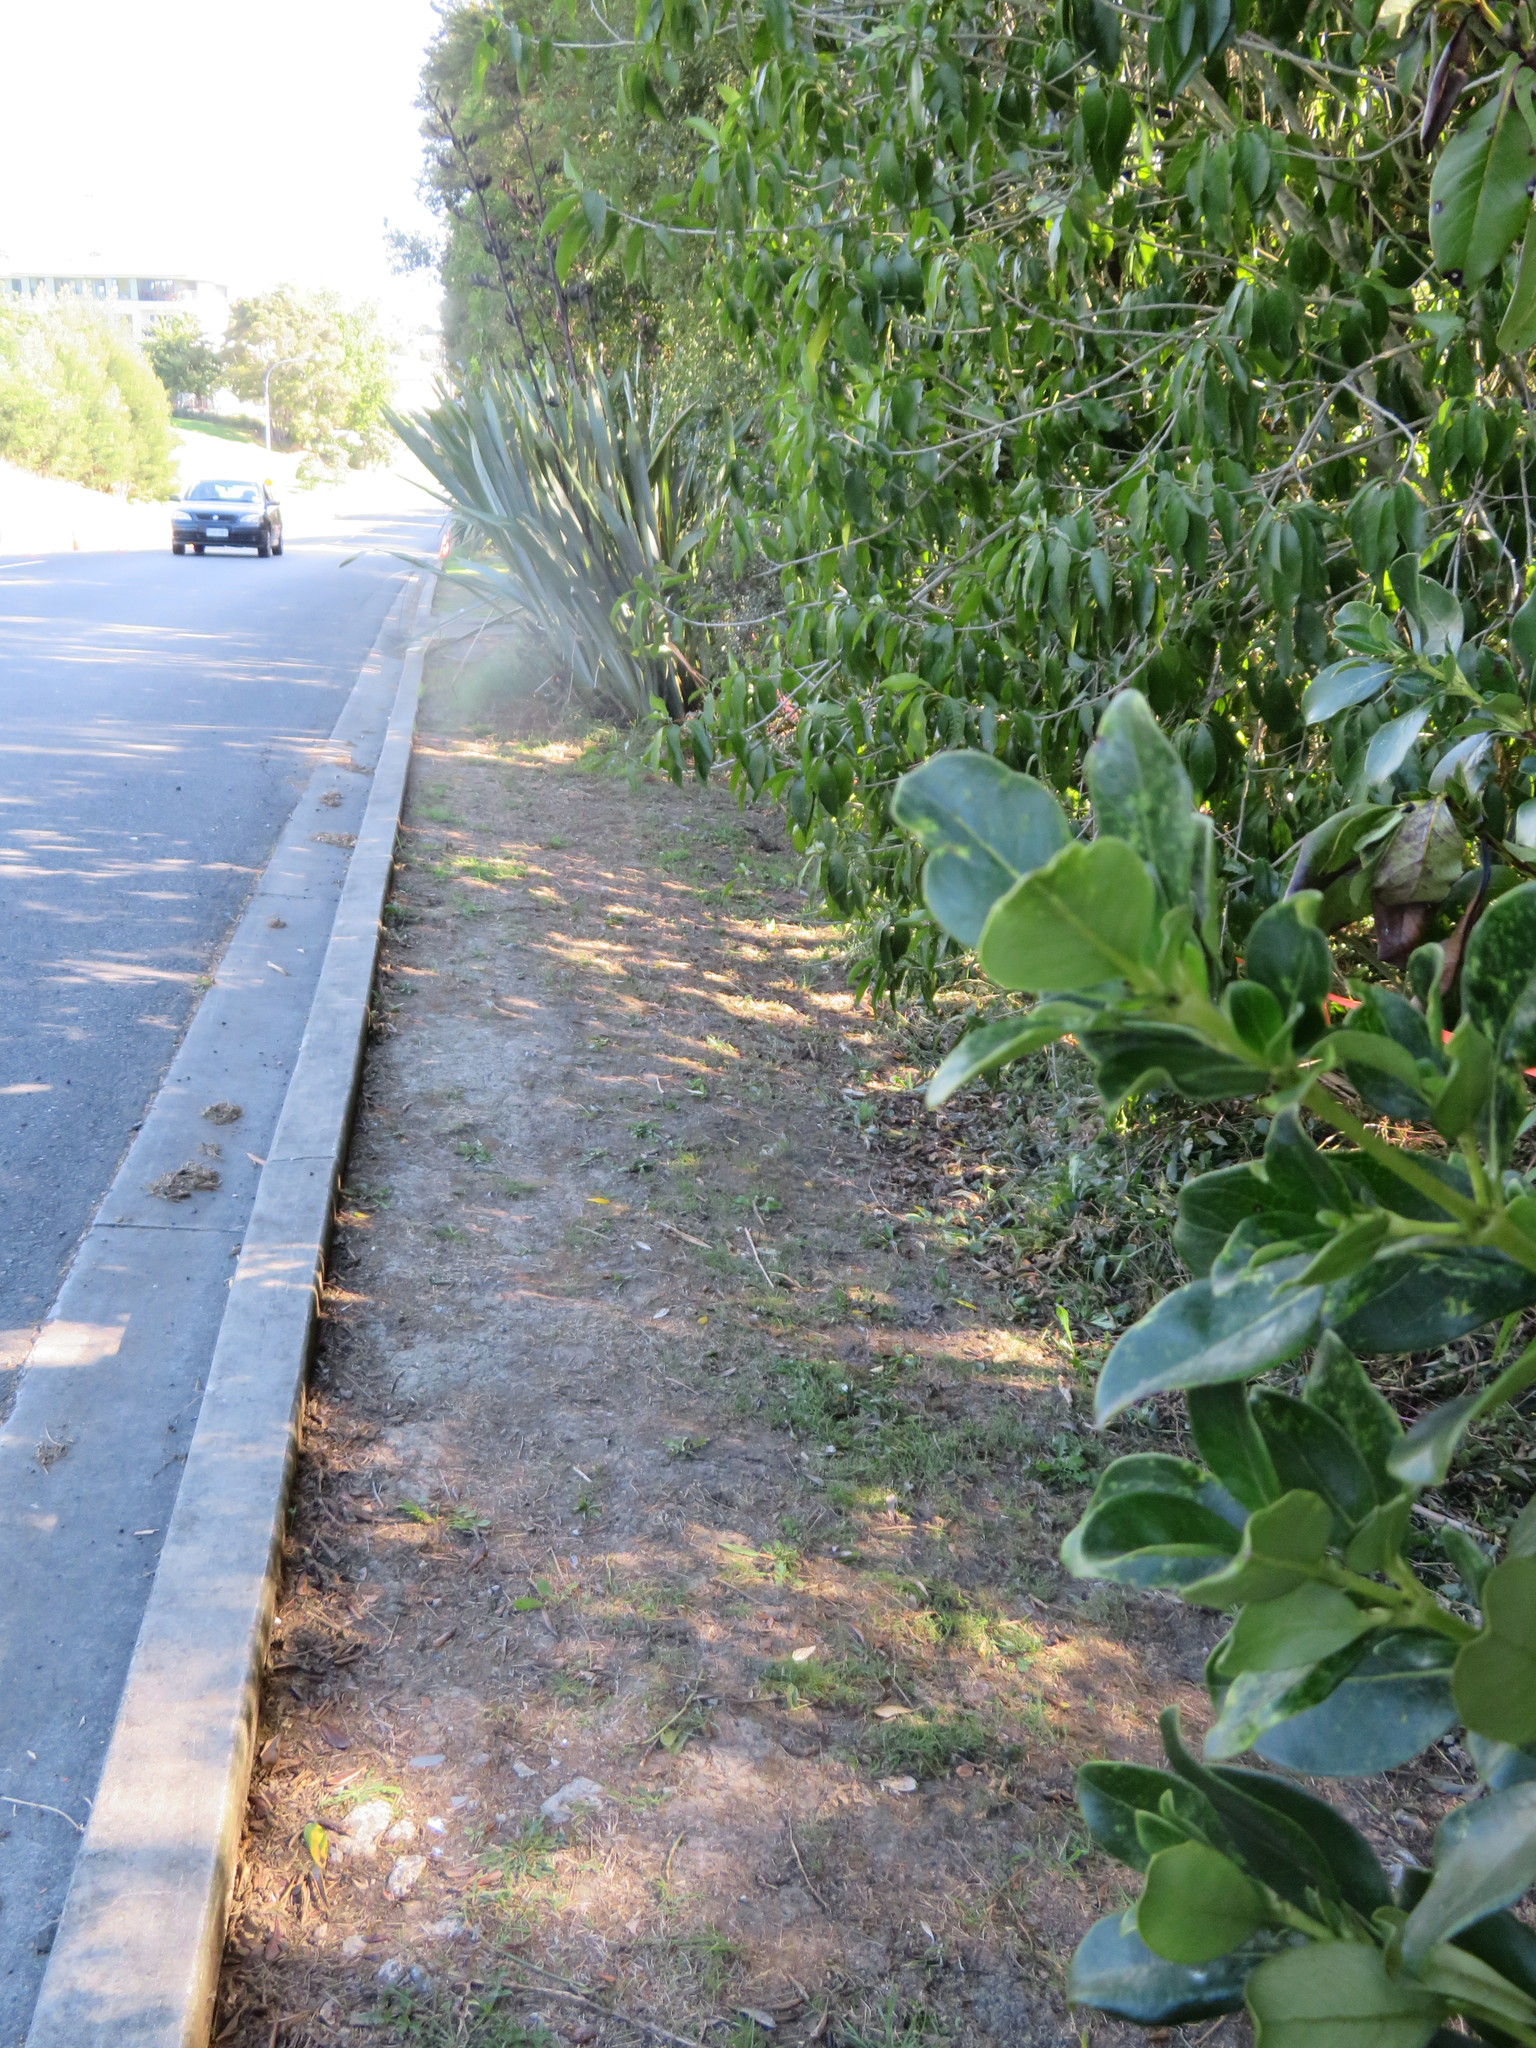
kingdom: Plantae
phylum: Tracheophyta
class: Magnoliopsida
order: Malpighiales
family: Violaceae
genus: Melicytus
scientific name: Melicytus ramiflorus
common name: Mahoe
